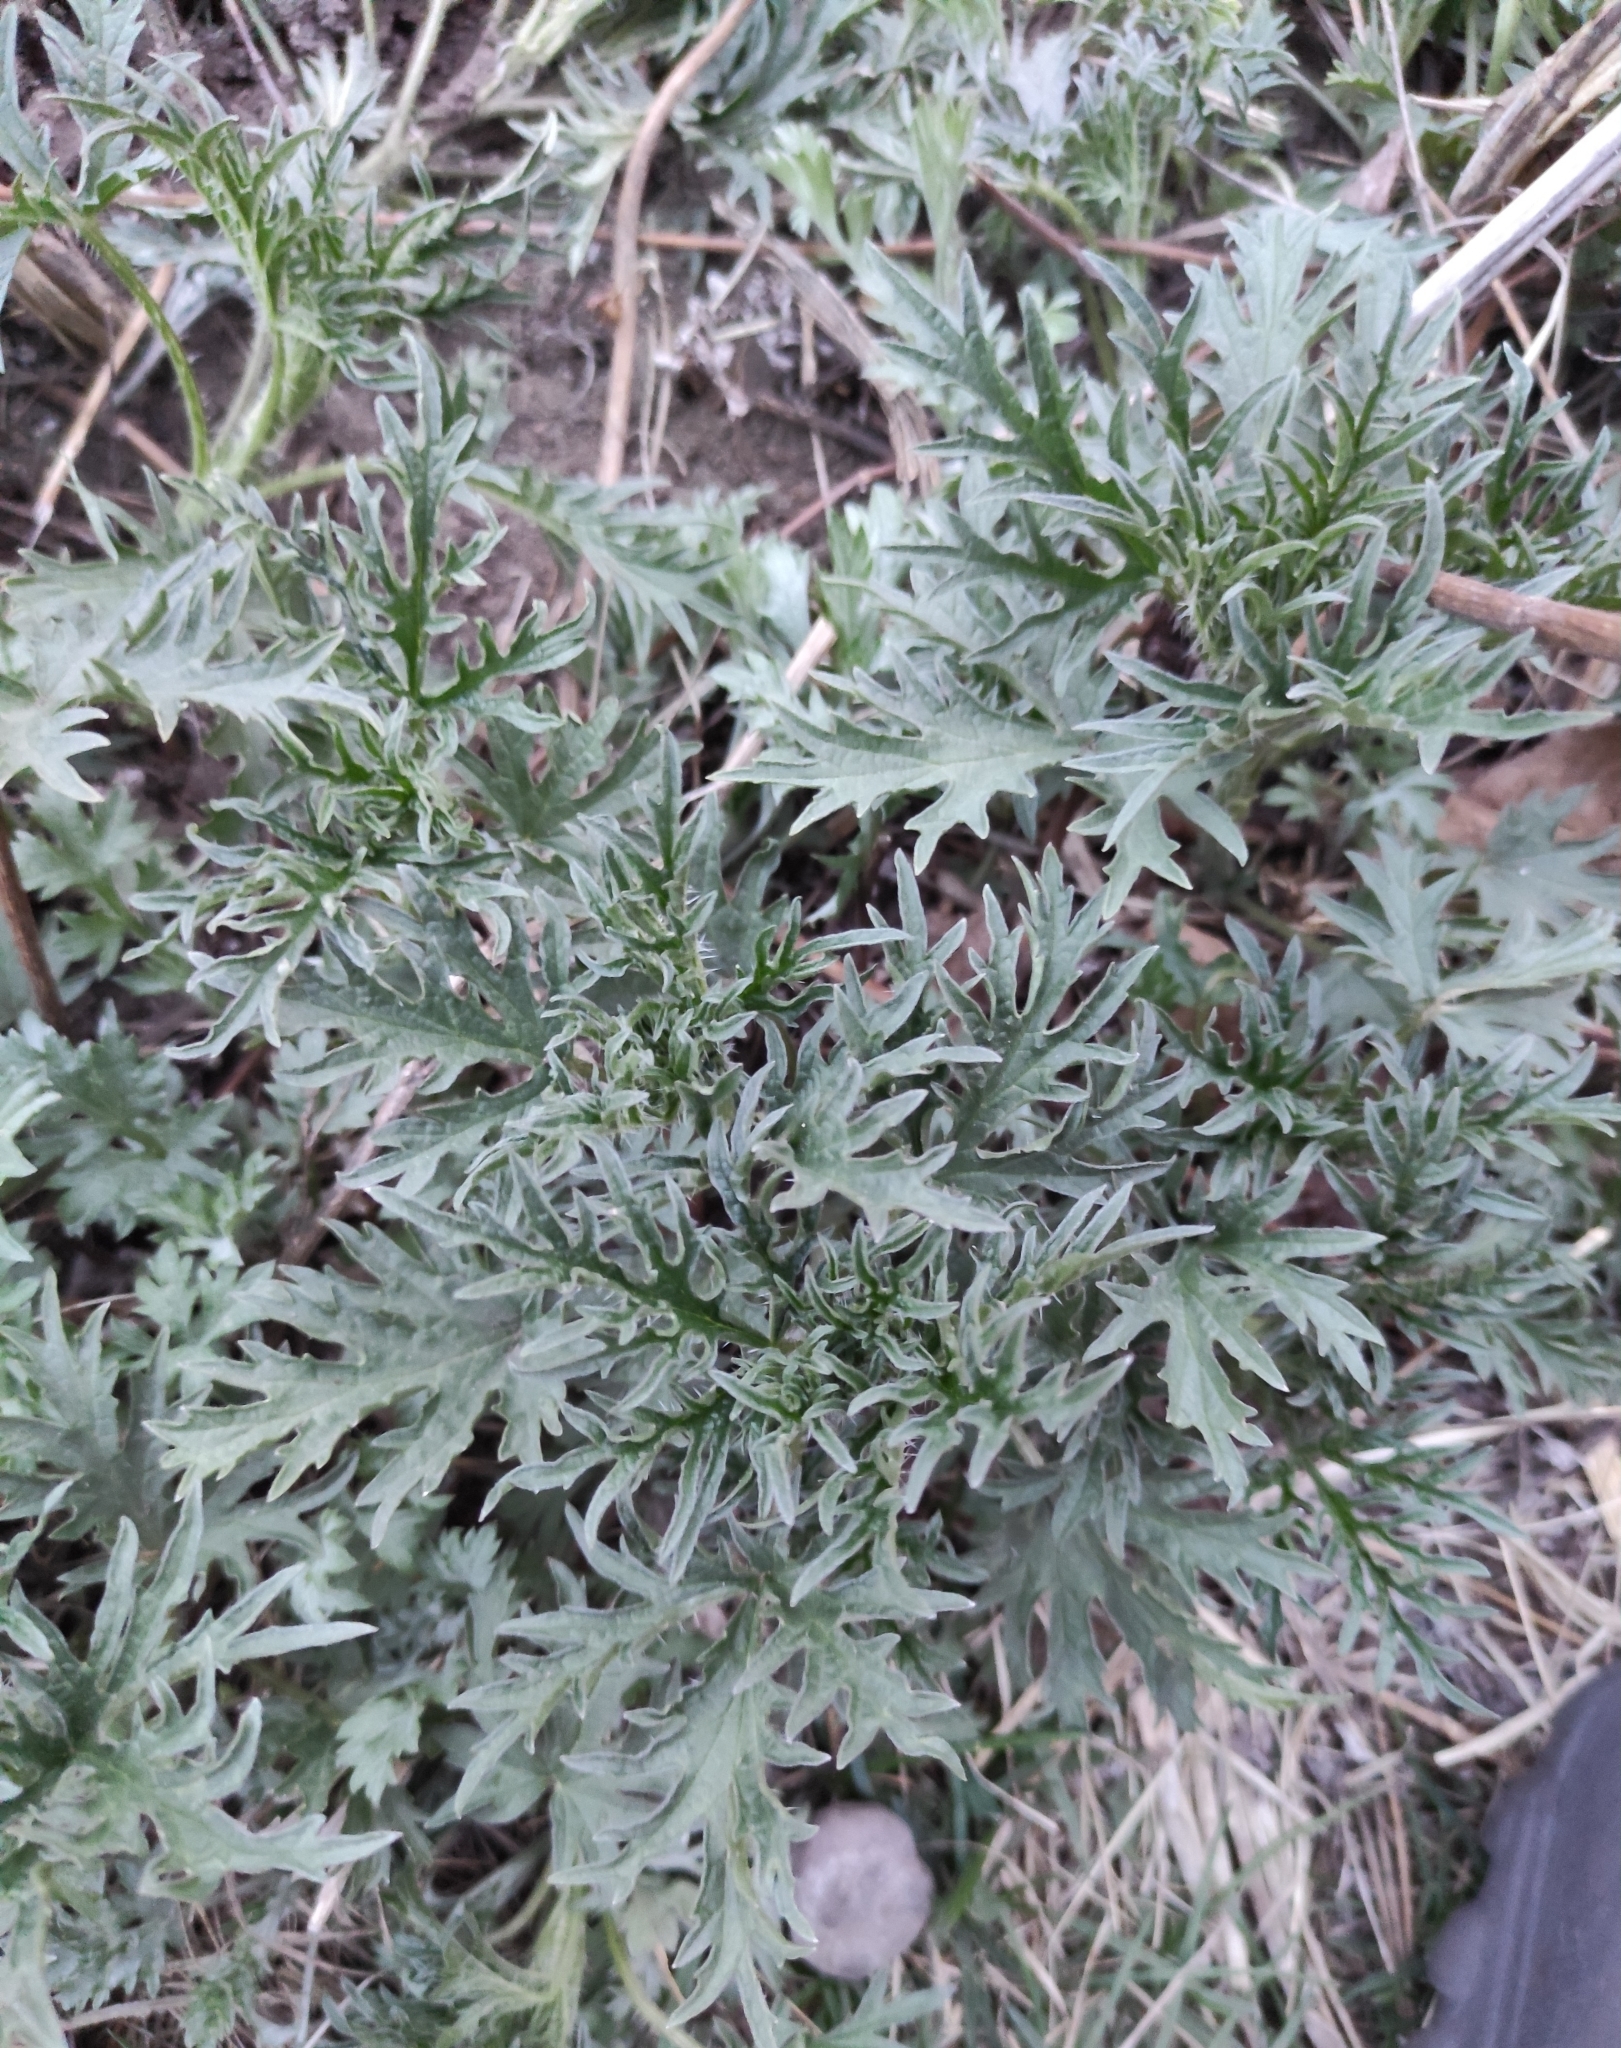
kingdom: Plantae
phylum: Tracheophyta
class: Magnoliopsida
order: Rosales
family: Urticaceae
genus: Urtica
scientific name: Urtica cannabina
